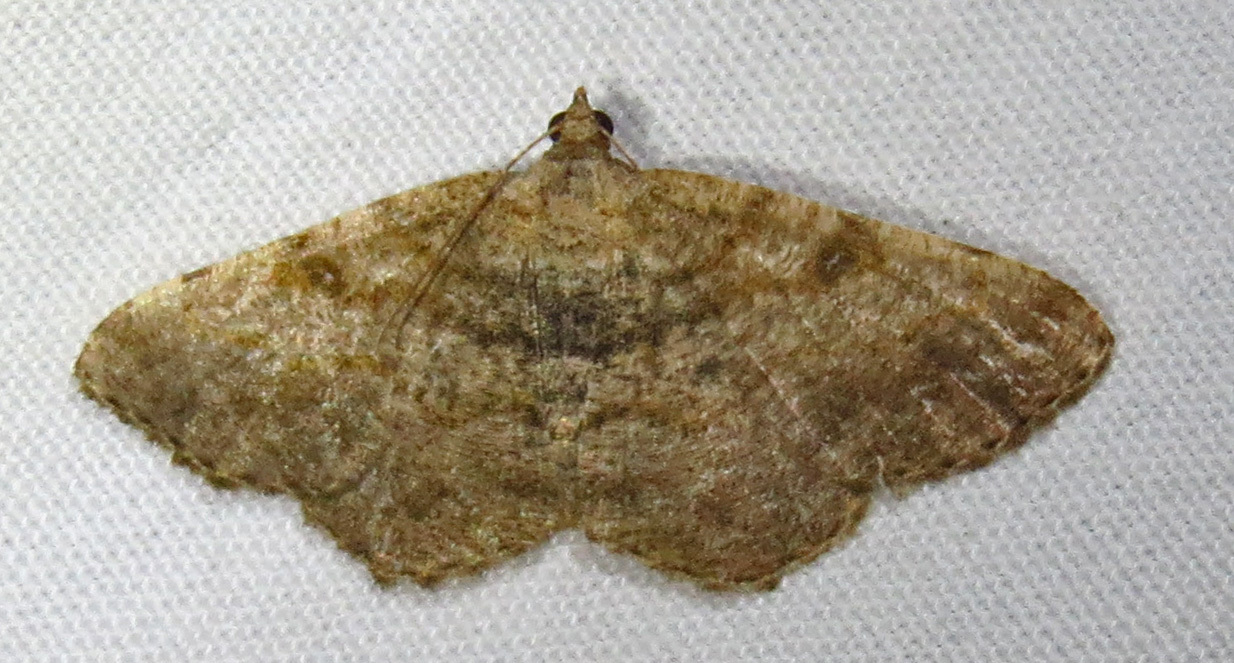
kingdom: Animalia
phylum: Arthropoda
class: Insecta
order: Lepidoptera
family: Geometridae
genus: Digrammia
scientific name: Digrammia gnophosaria
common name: Hollow-spotted angle
